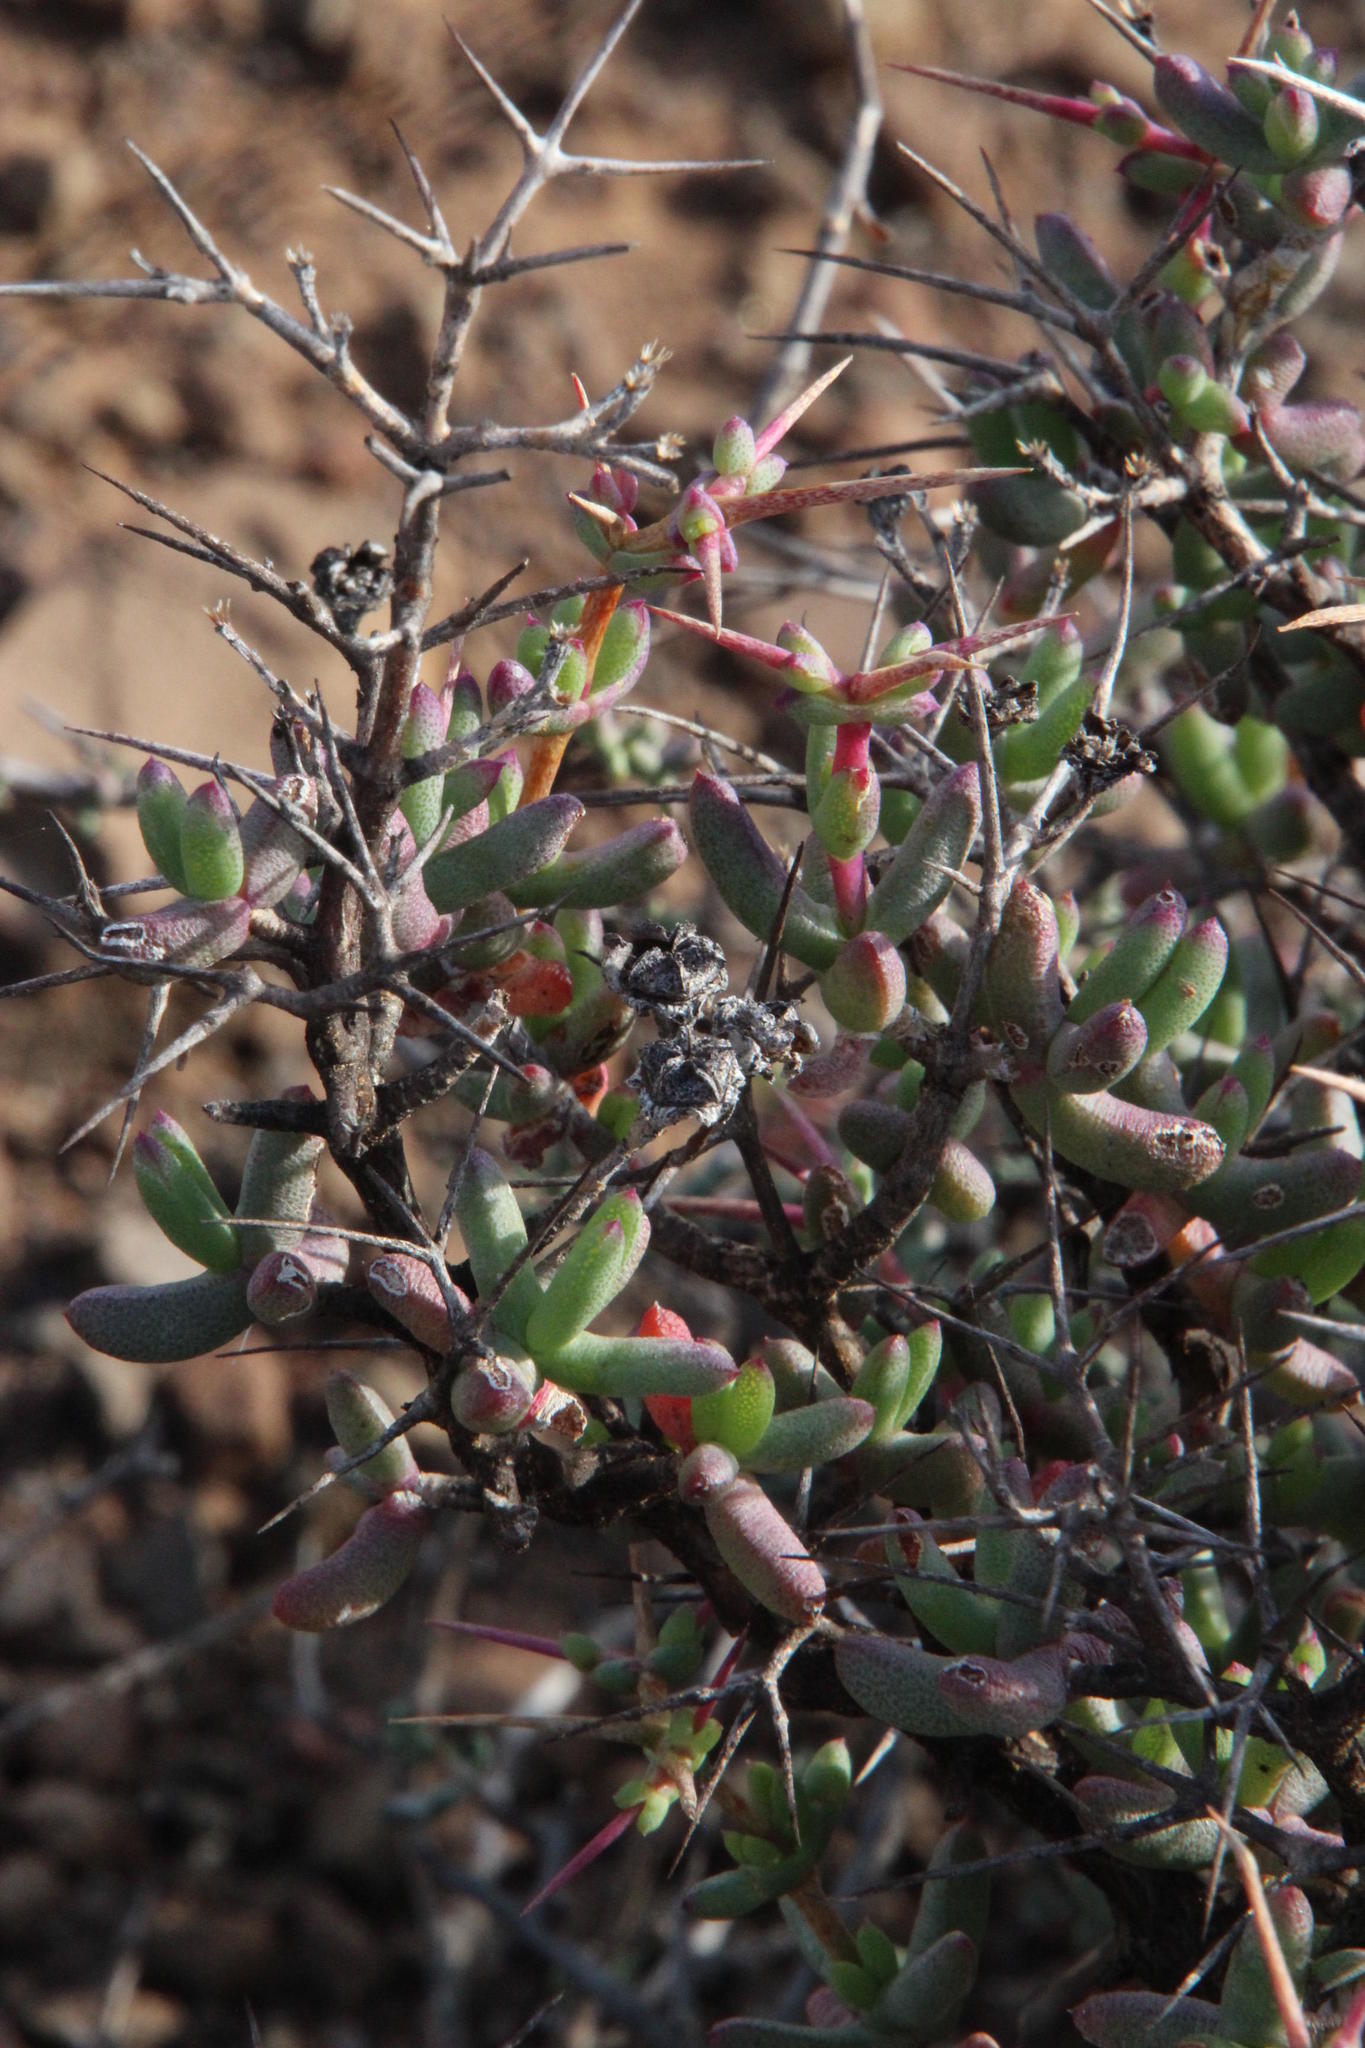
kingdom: Plantae
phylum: Tracheophyta
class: Magnoliopsida
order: Caryophyllales
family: Aizoaceae
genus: Ruschia
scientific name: Ruschia cradockensis
